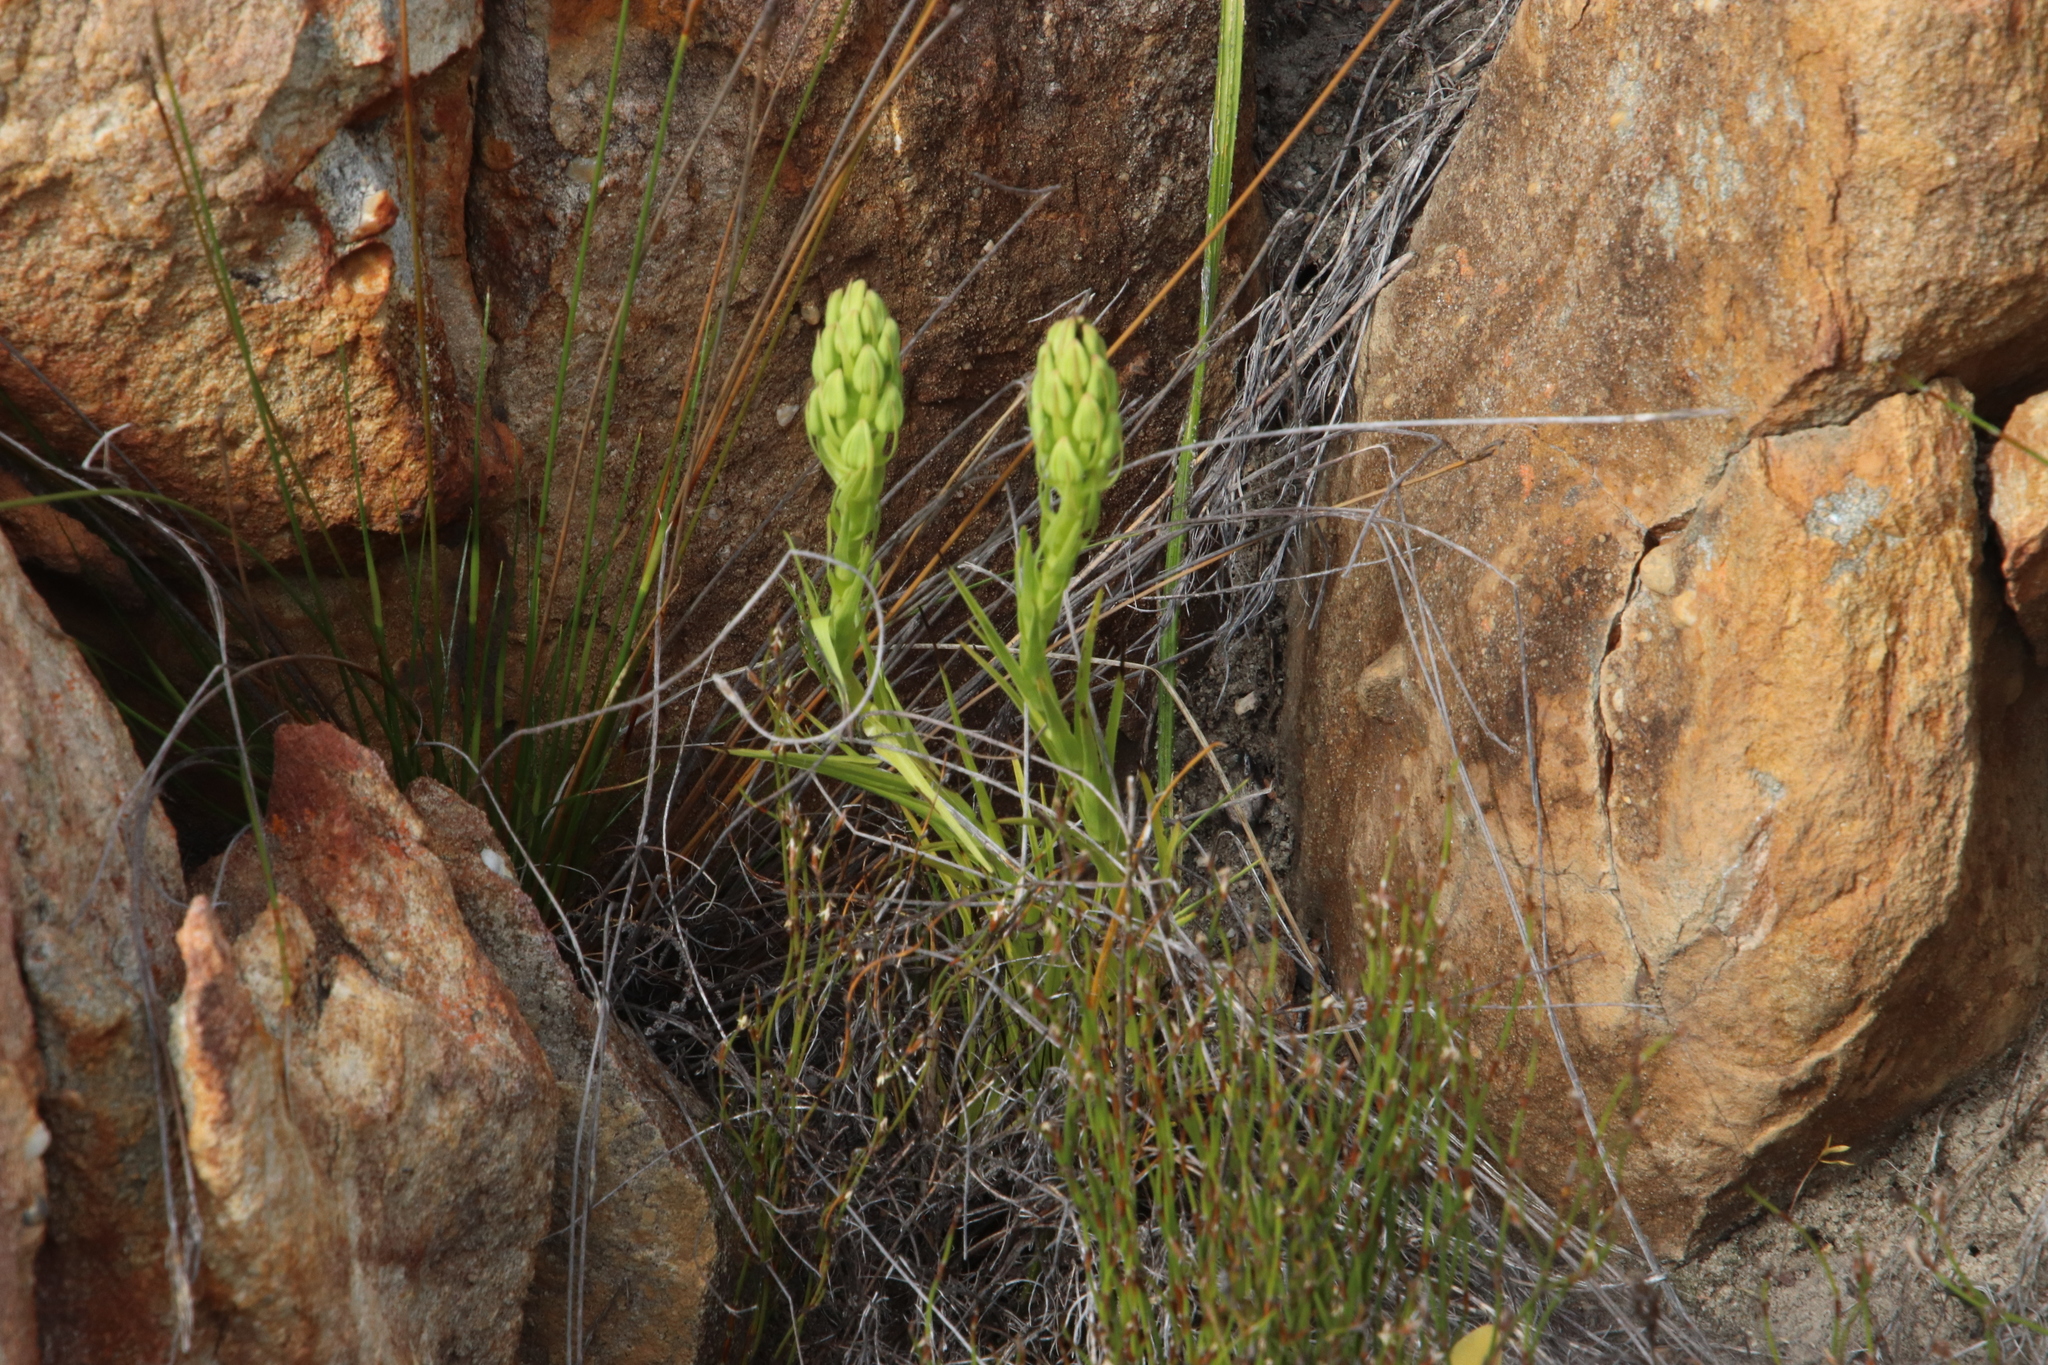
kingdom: Plantae
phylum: Tracheophyta
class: Liliopsida
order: Asparagales
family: Orchidaceae
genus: Ceratandra
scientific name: Ceratandra atrata
